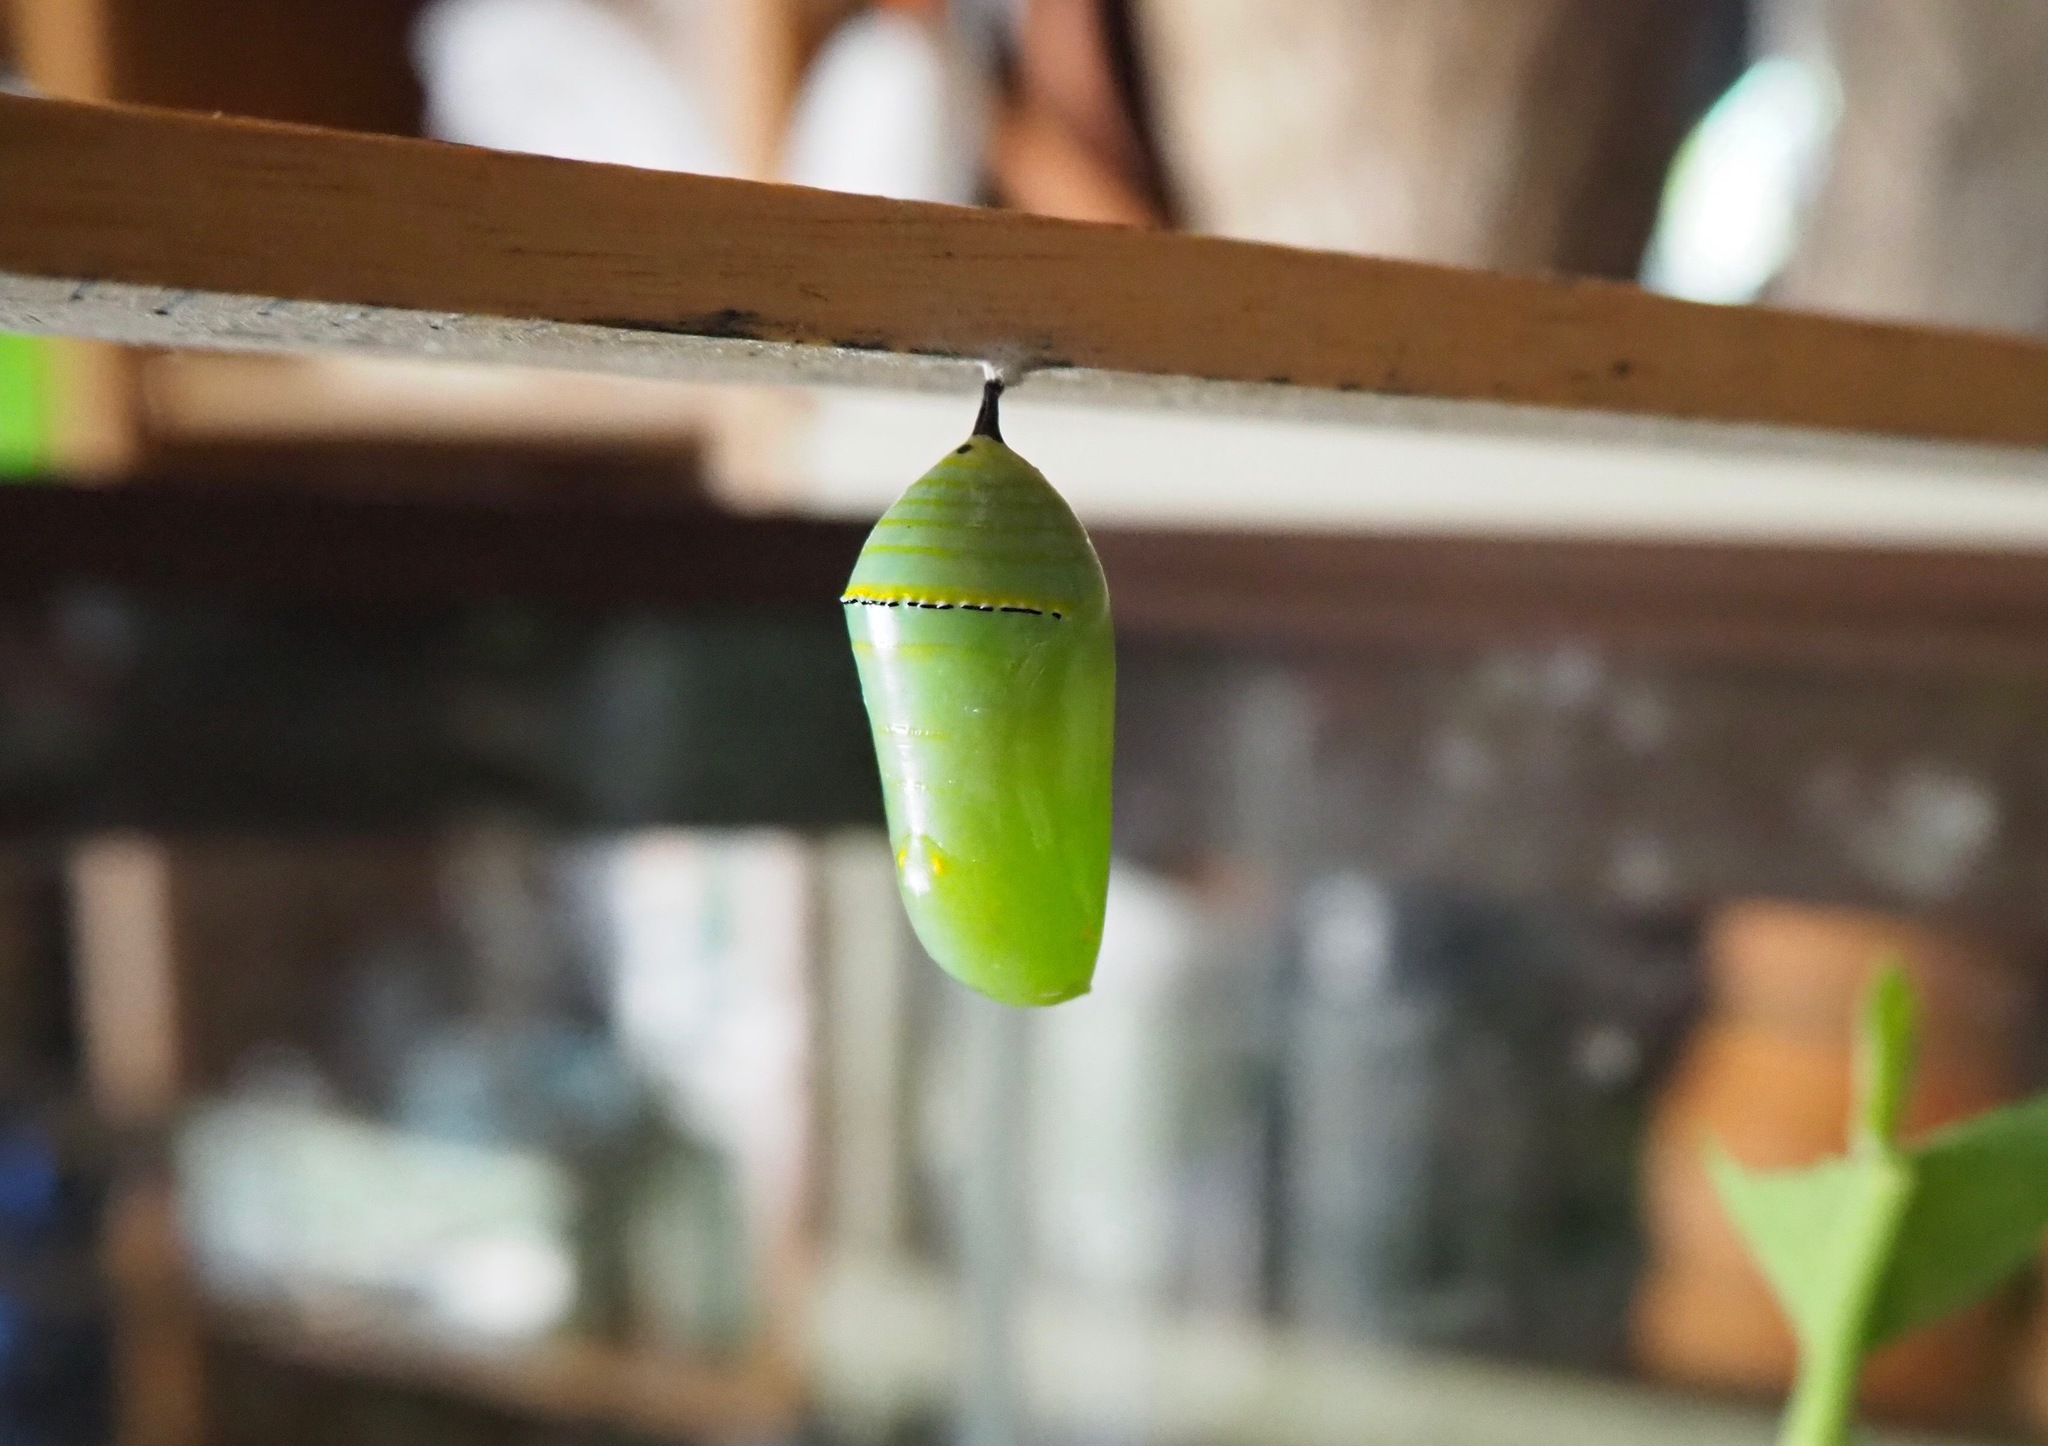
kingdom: Animalia
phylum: Arthropoda
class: Insecta
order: Lepidoptera
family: Nymphalidae
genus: Danaus
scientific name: Danaus plexippus
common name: Monarch
